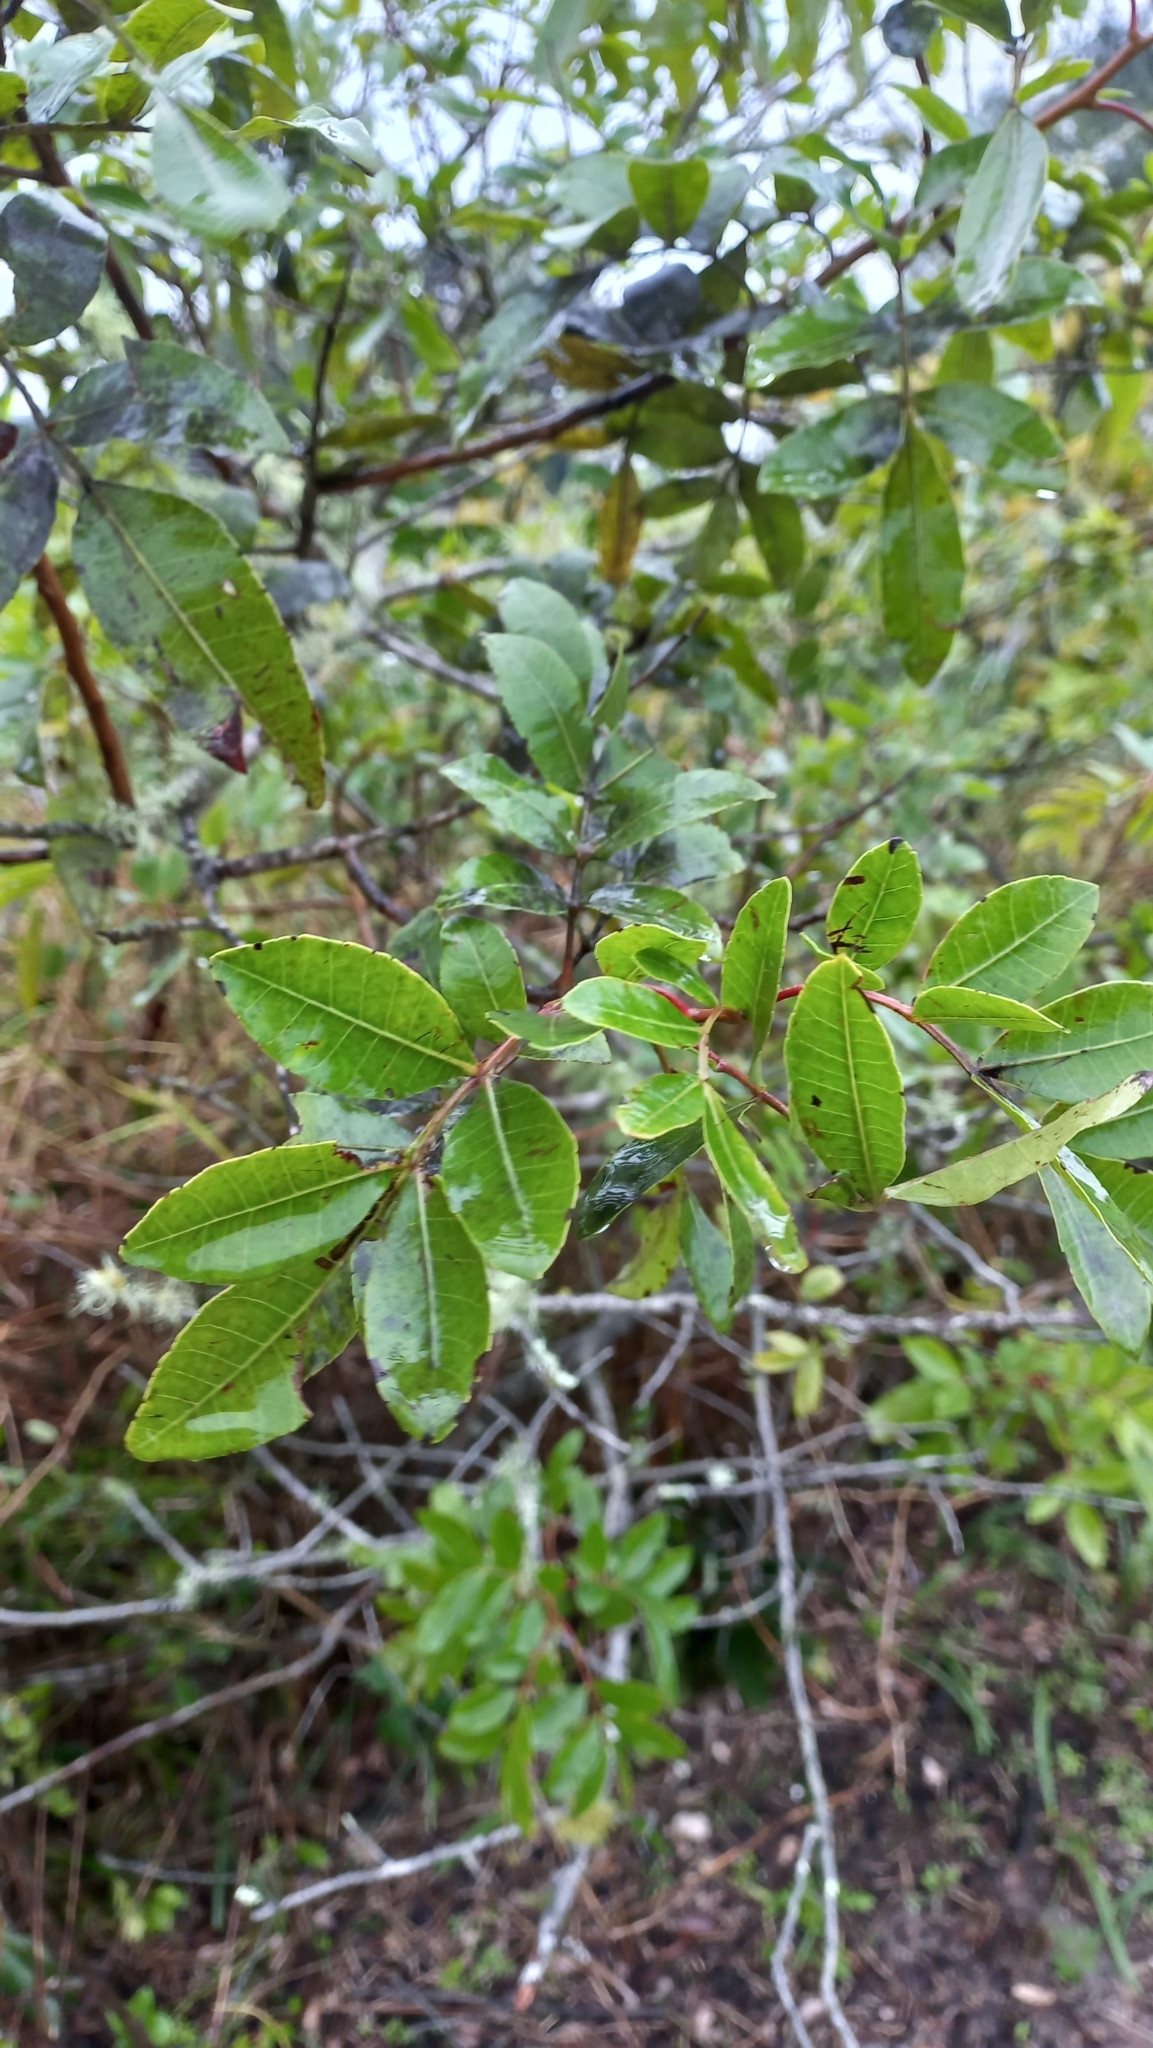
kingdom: Plantae
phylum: Tracheophyta
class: Magnoliopsida
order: Sapindales
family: Anacardiaceae
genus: Schinus
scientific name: Schinus terebinthifolia
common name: Brazilian peppertree
